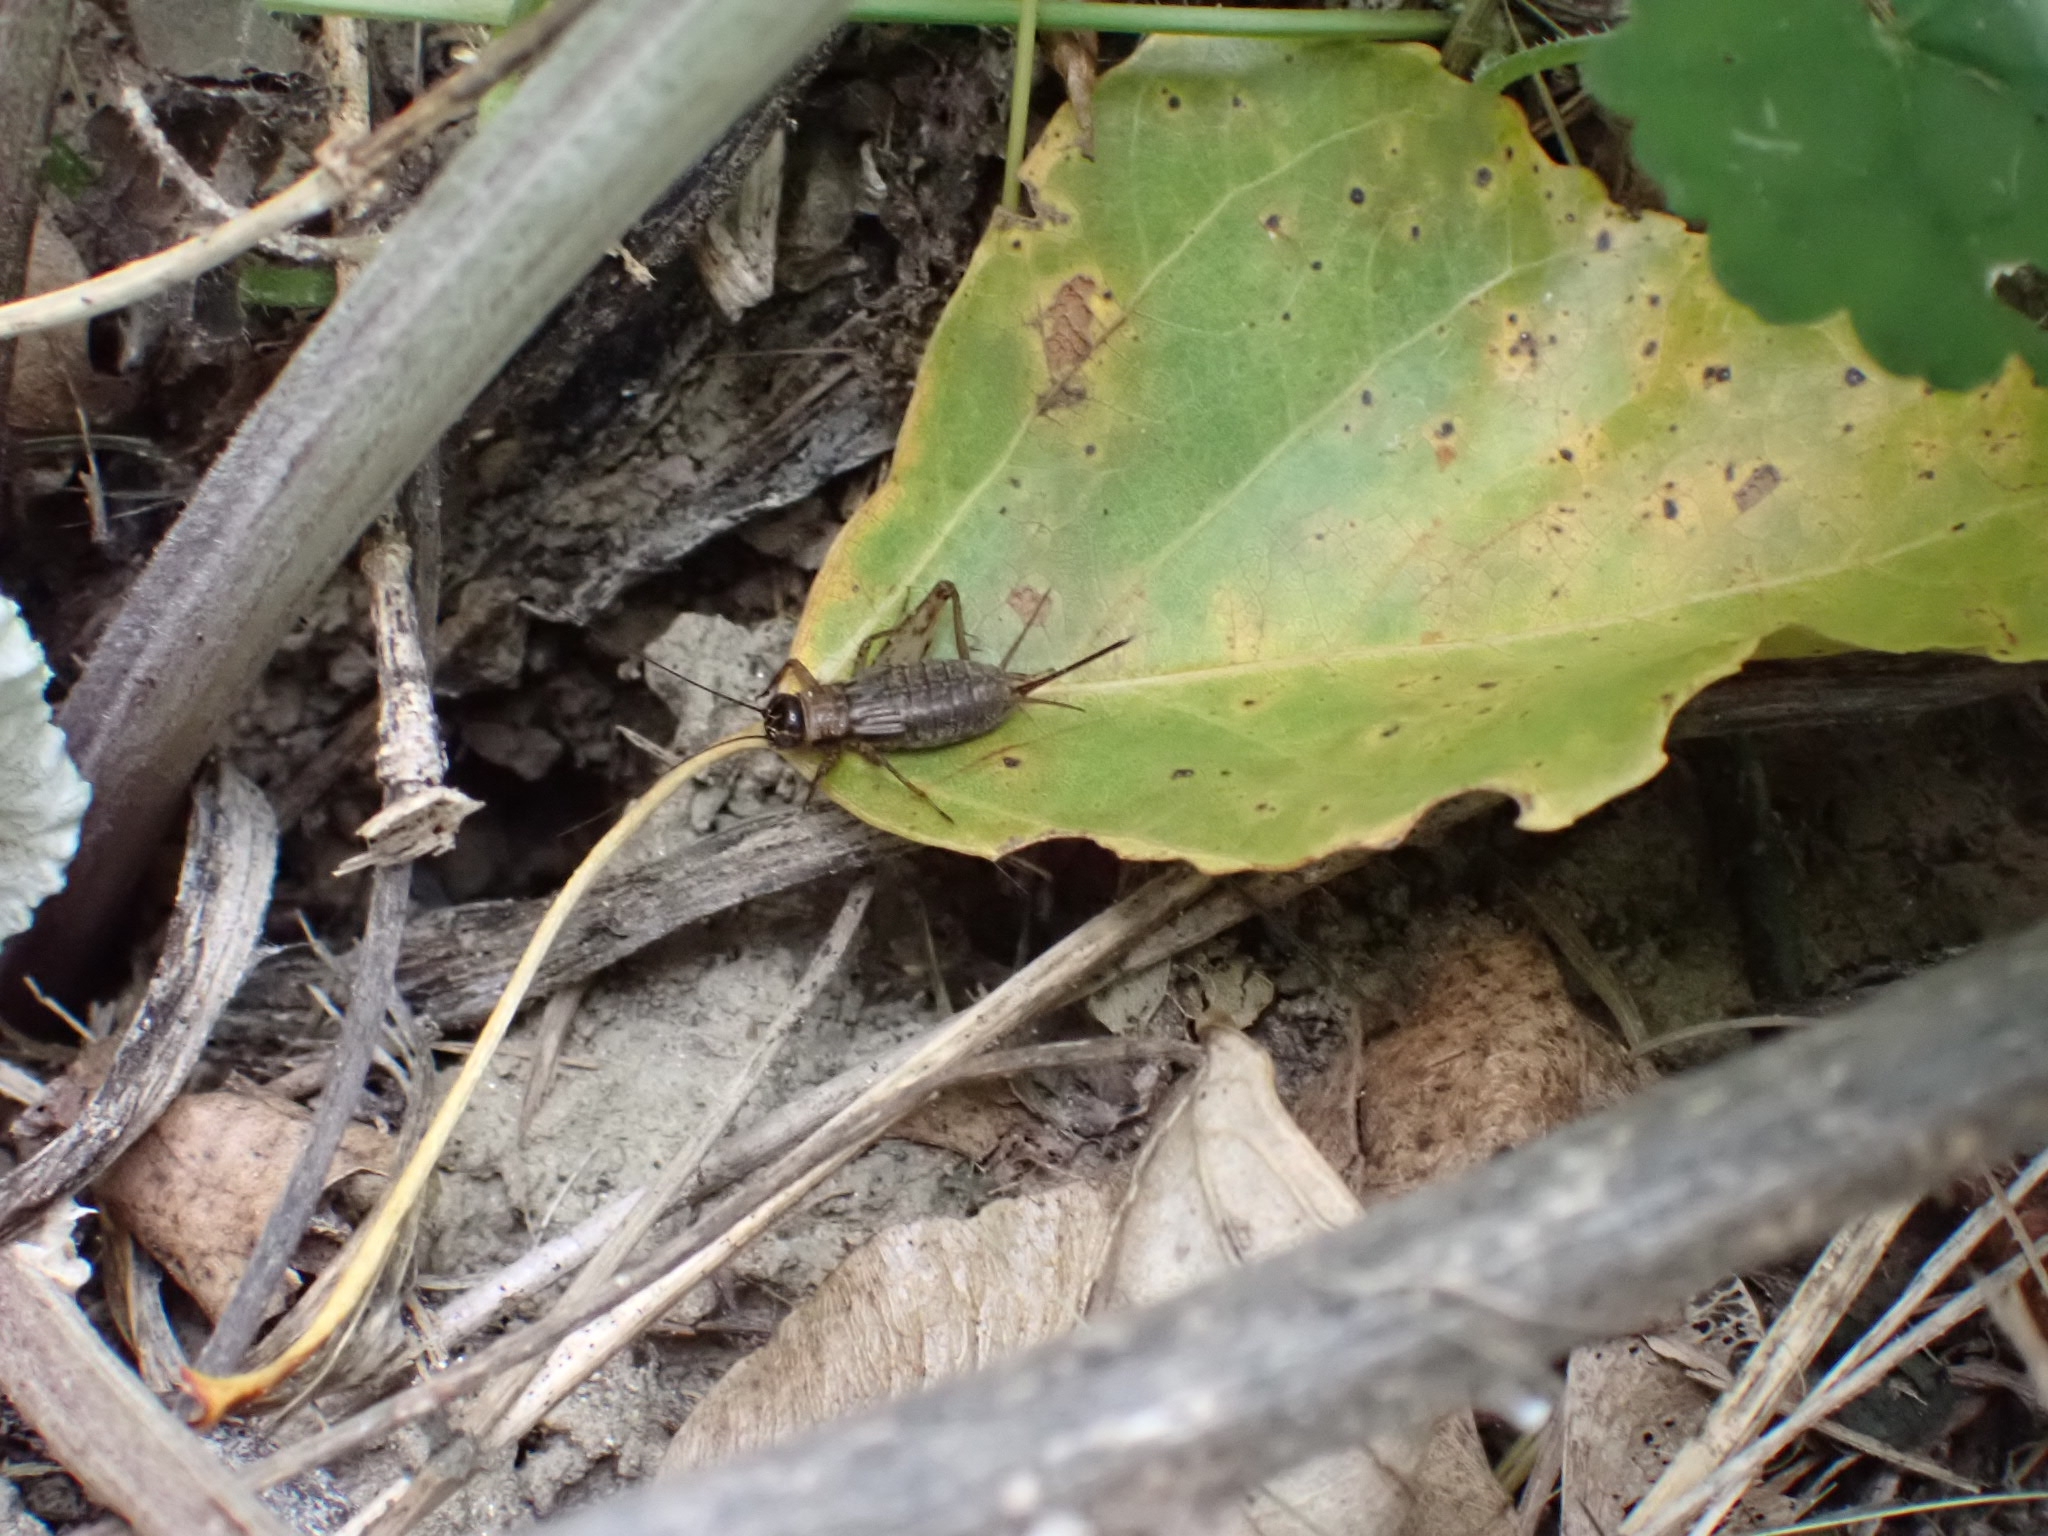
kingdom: Animalia
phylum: Arthropoda
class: Insecta
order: Orthoptera
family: Trigonidiidae
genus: Nemobius
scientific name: Nemobius sylvestris
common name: Wood-cricket
